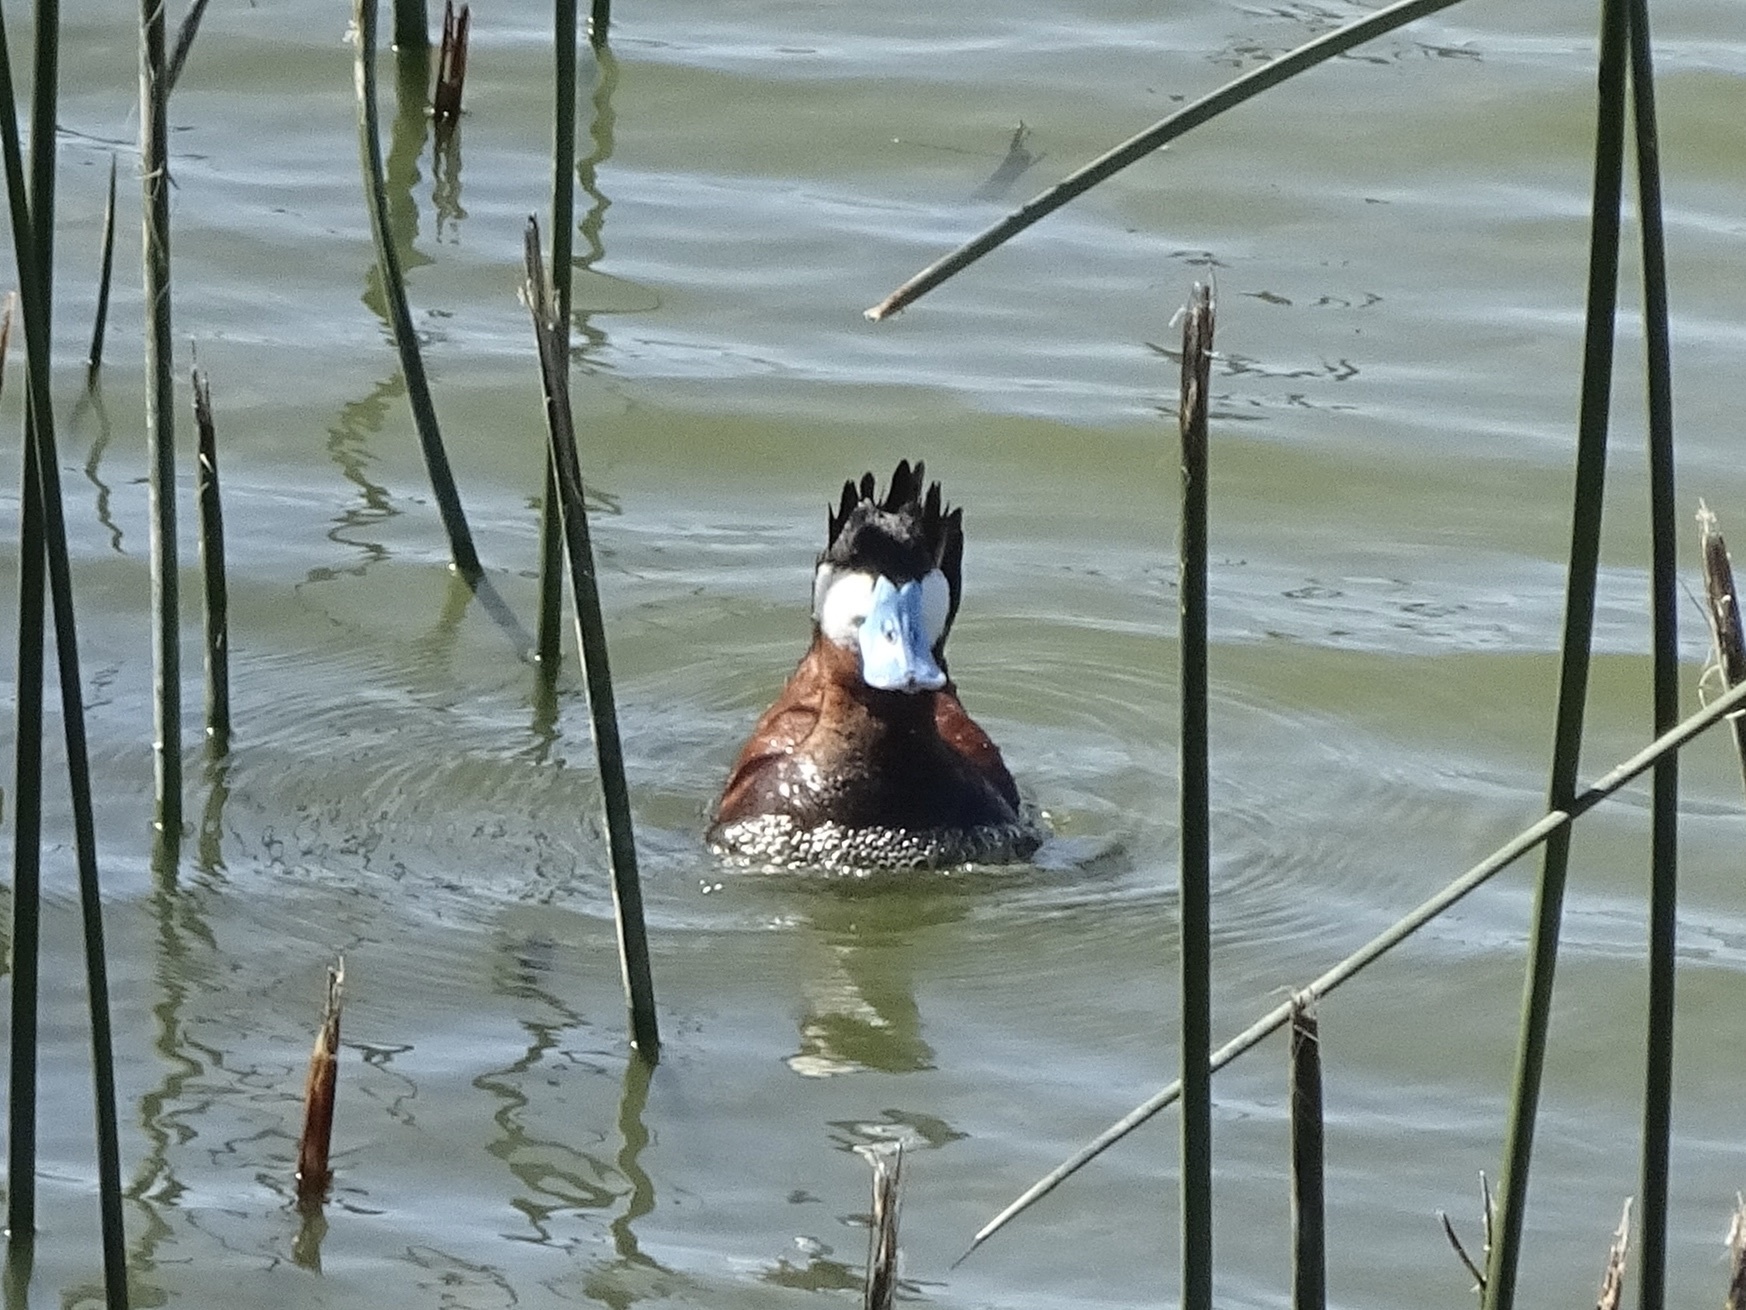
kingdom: Animalia
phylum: Chordata
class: Aves
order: Anseriformes
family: Anatidae
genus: Oxyura
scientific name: Oxyura jamaicensis
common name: Ruddy duck
